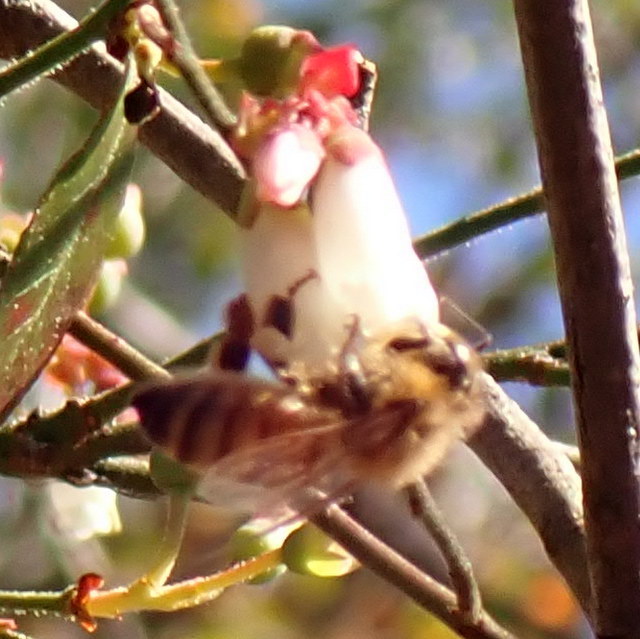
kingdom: Animalia
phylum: Arthropoda
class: Insecta
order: Hymenoptera
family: Apidae
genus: Apis
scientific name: Apis mellifera
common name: Honey bee
